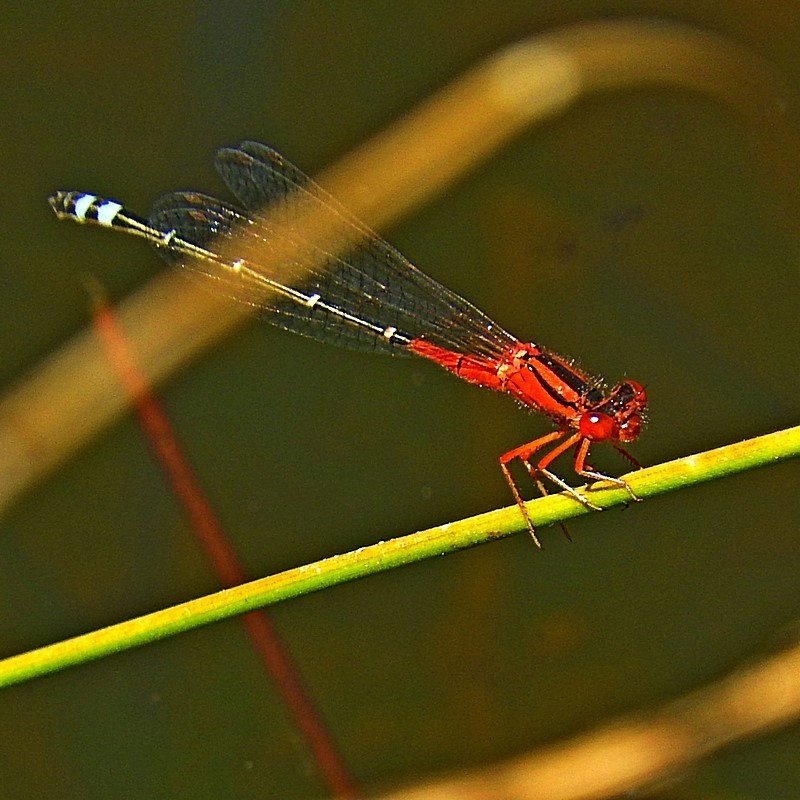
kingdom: Animalia
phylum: Arthropoda
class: Insecta
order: Odonata
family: Coenagrionidae
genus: Xanthagrion
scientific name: Xanthagrion erythroneurum
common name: Red and blue damsel
